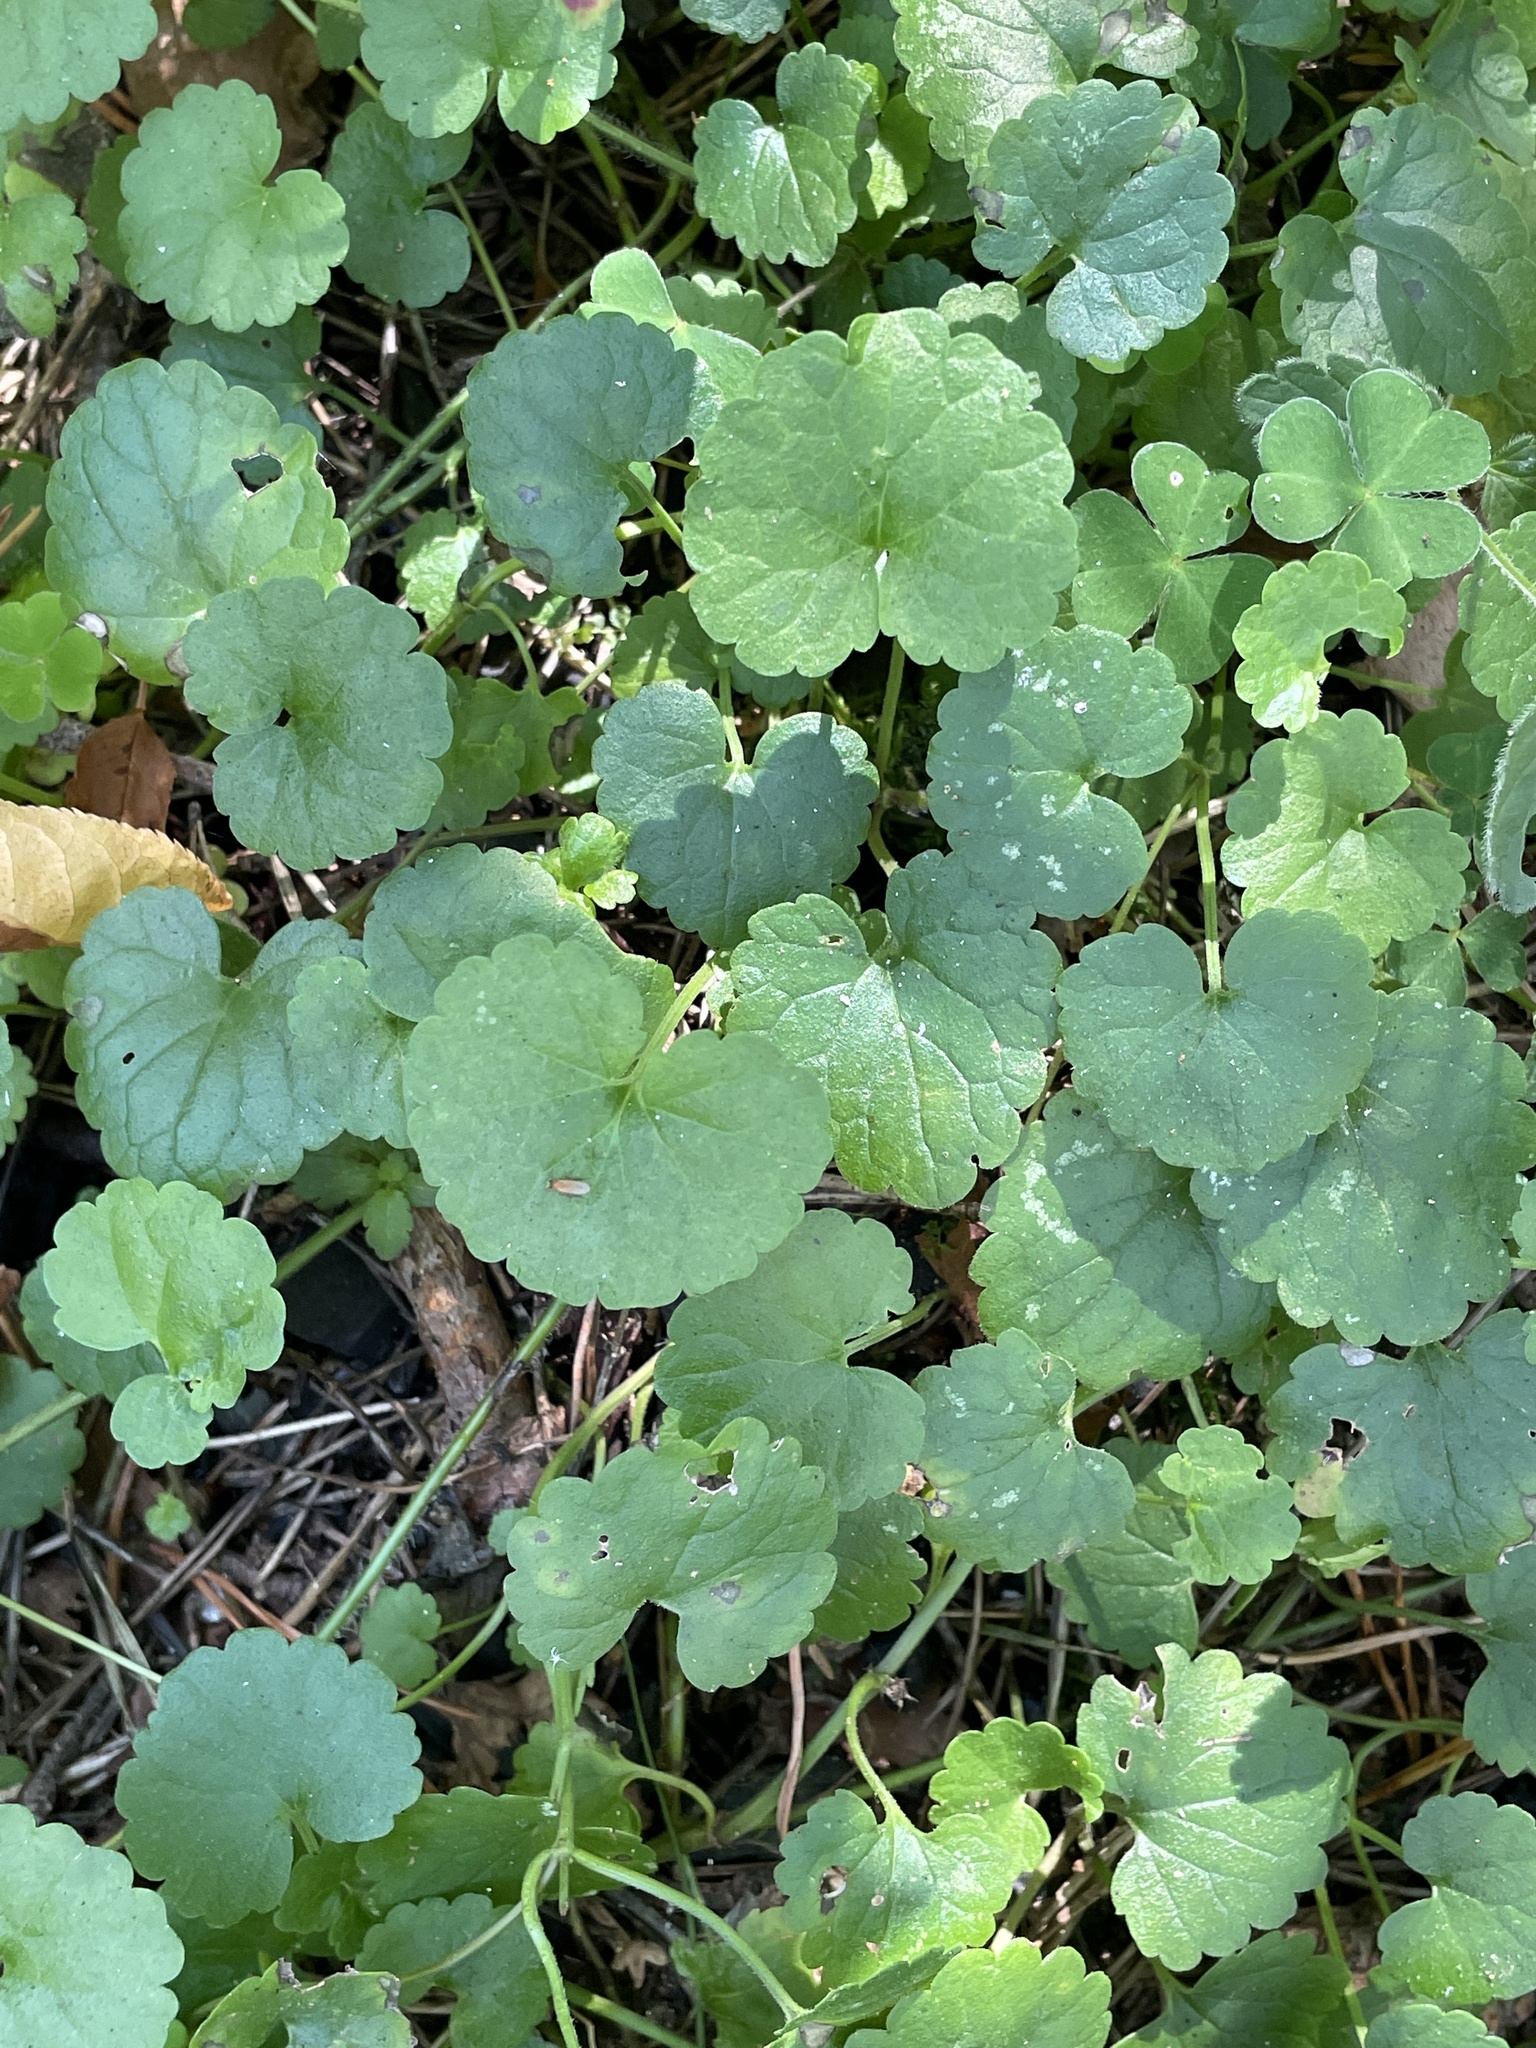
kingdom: Plantae
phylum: Tracheophyta
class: Magnoliopsida
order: Lamiales
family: Lamiaceae
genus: Glechoma
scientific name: Glechoma hederacea
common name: Ground ivy
